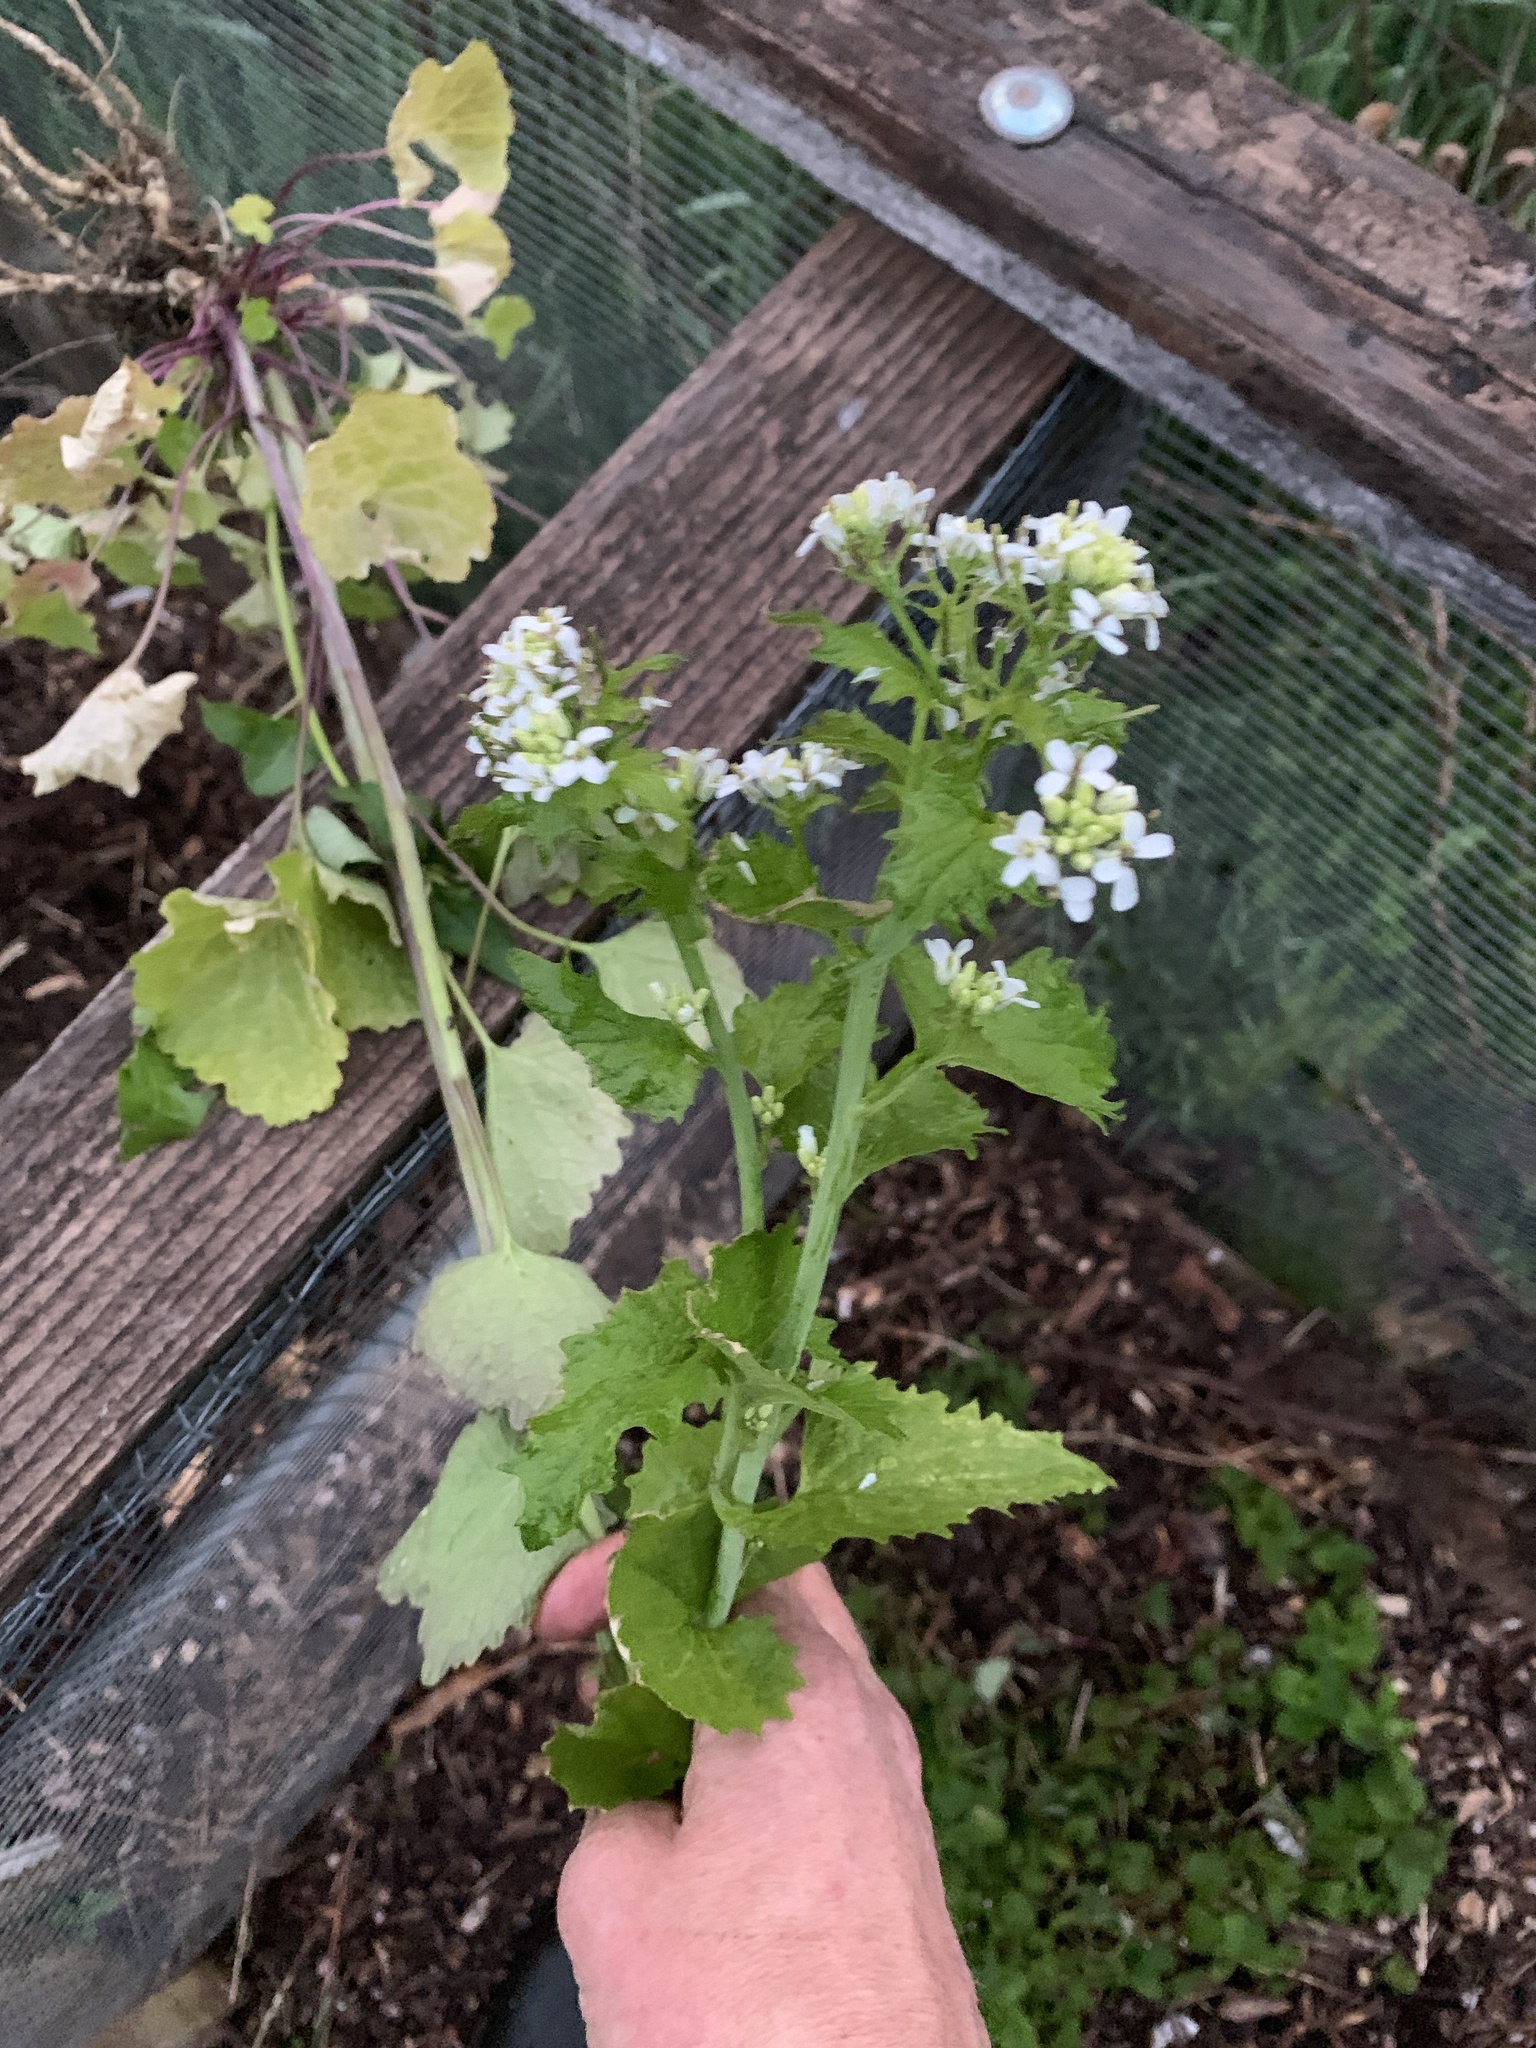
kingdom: Plantae
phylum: Tracheophyta
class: Magnoliopsida
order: Brassicales
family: Brassicaceae
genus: Alliaria
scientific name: Alliaria petiolata
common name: Garlic mustard
